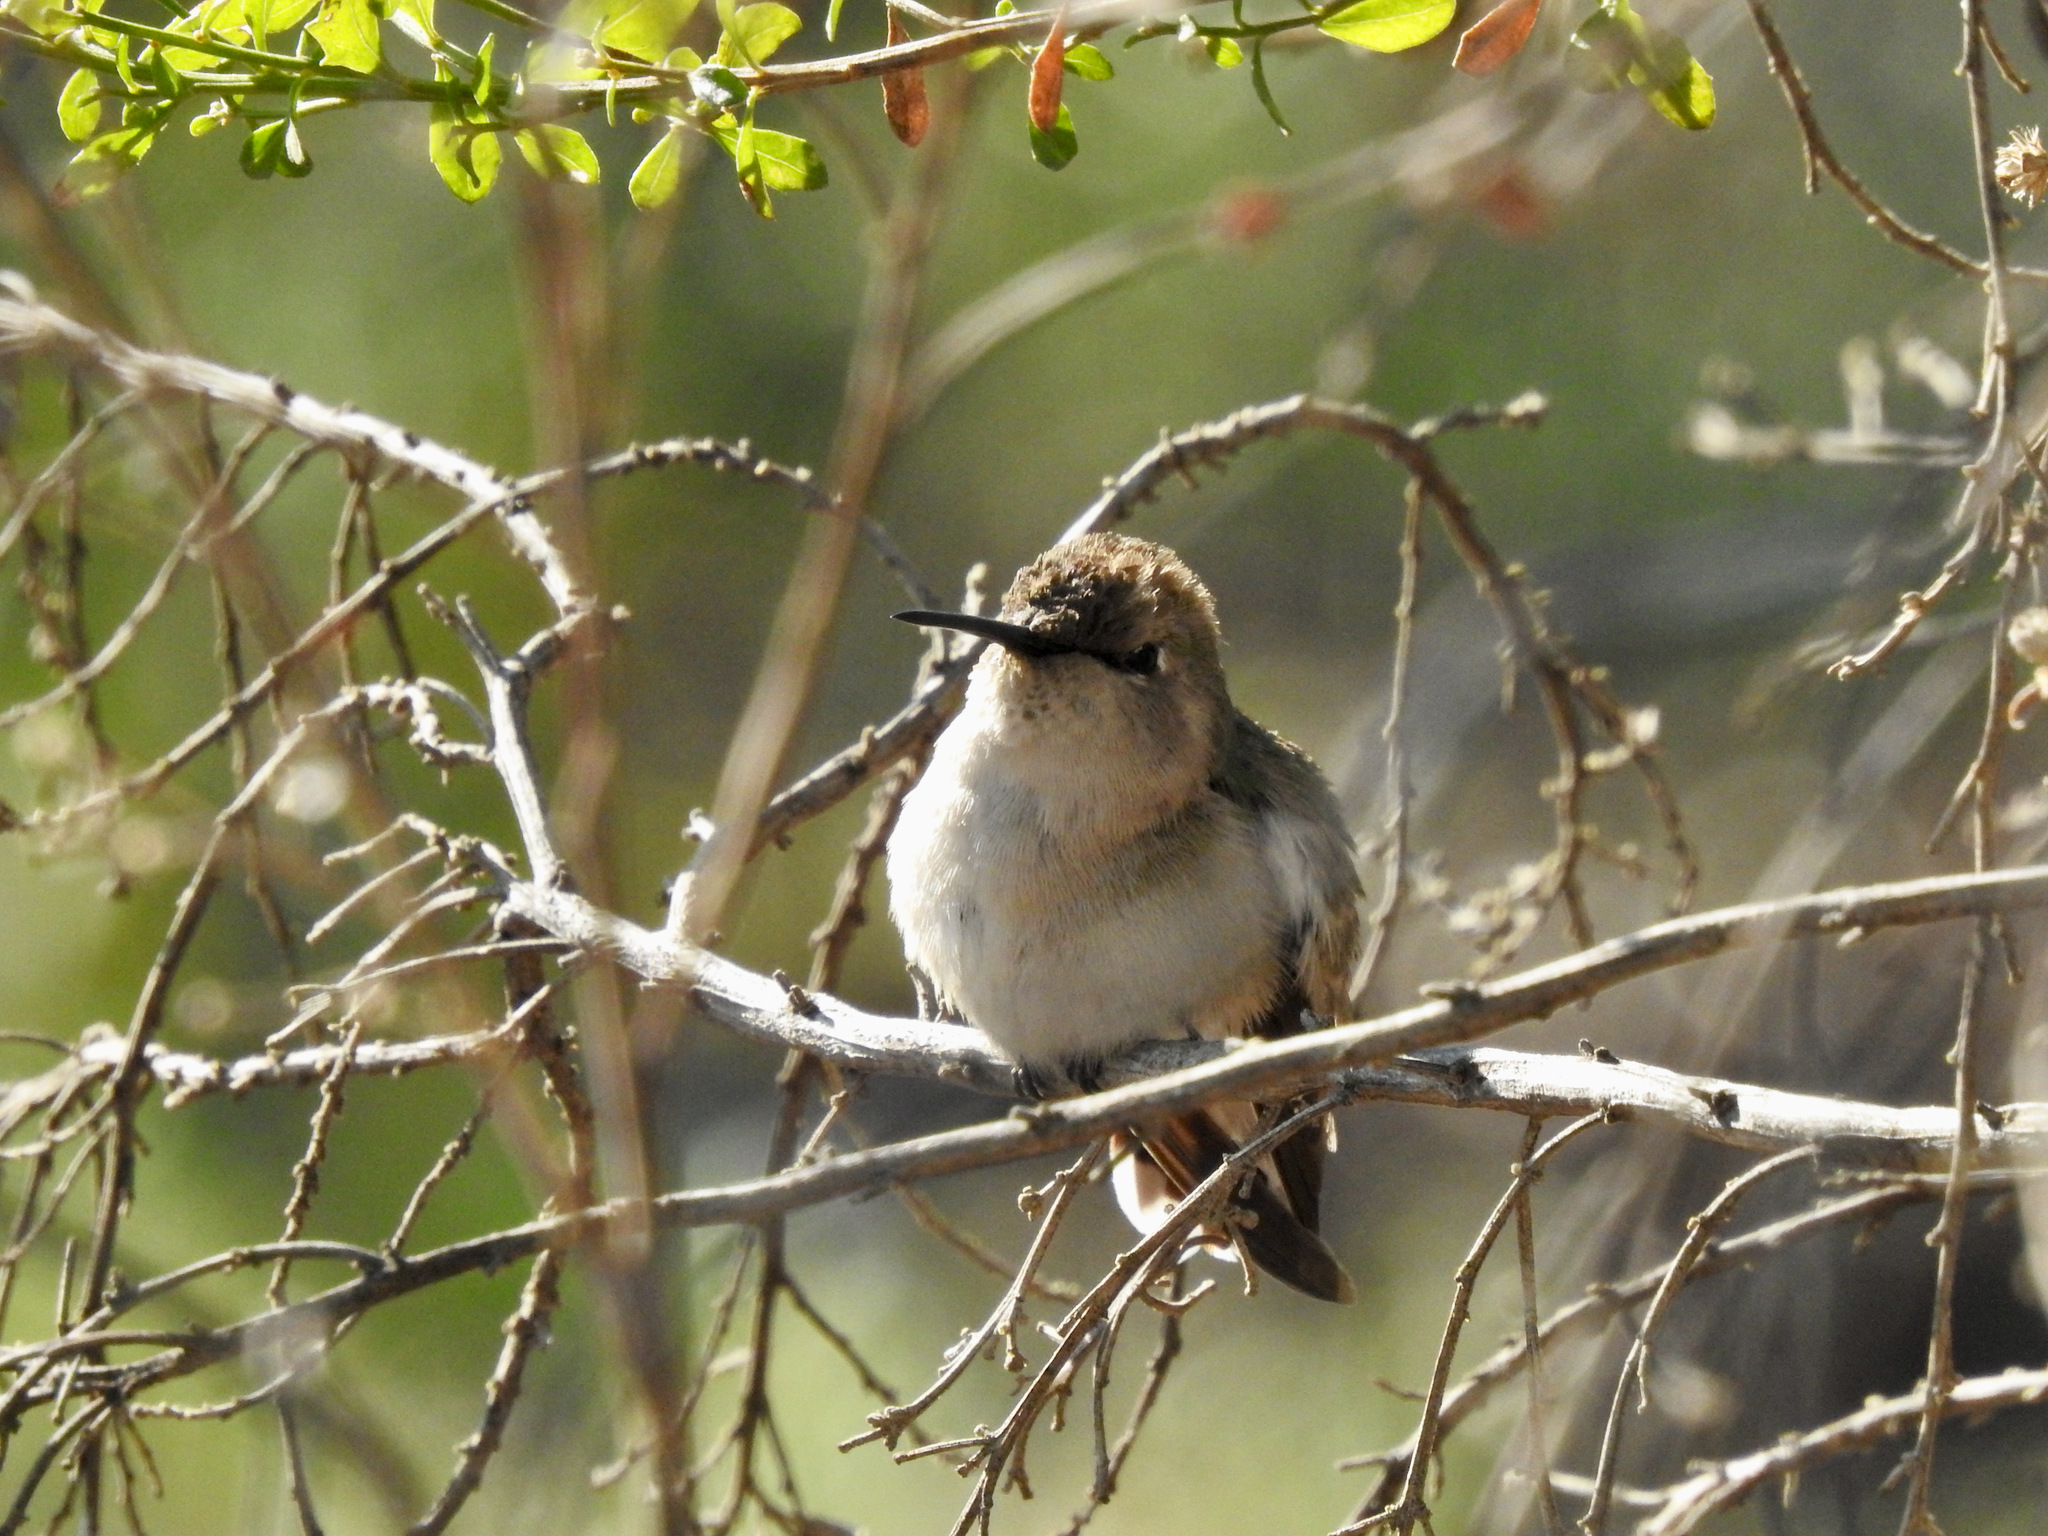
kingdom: Animalia
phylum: Chordata
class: Aves
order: Apodiformes
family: Trochilidae
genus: Calypte
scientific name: Calypte costae
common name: Costa's hummingbird
